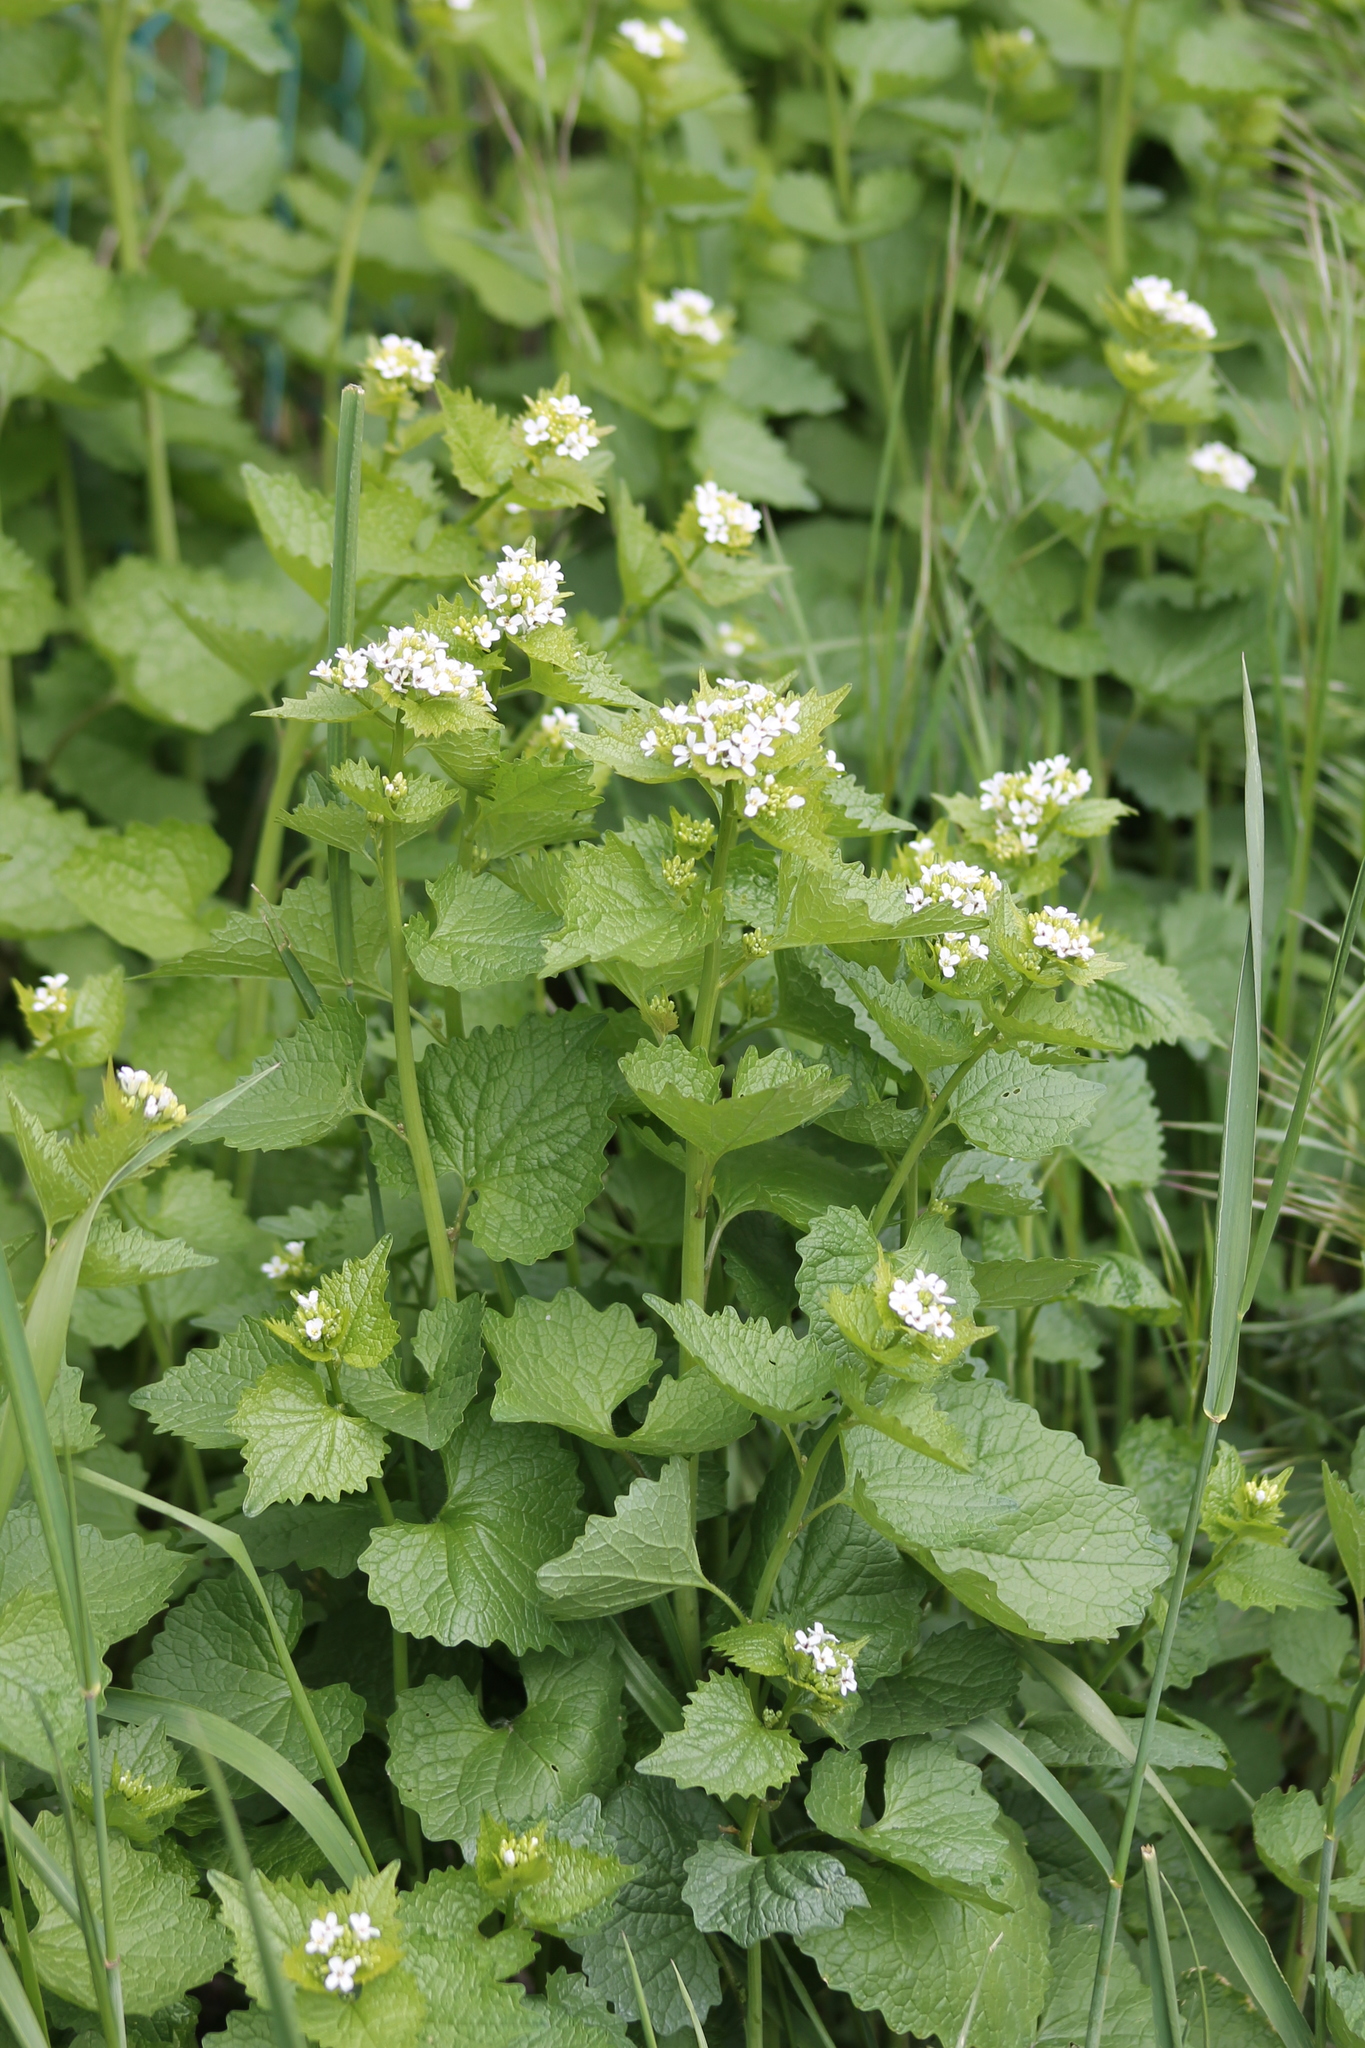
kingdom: Plantae
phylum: Tracheophyta
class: Magnoliopsida
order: Brassicales
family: Brassicaceae
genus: Alliaria
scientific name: Alliaria petiolata
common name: Garlic mustard
